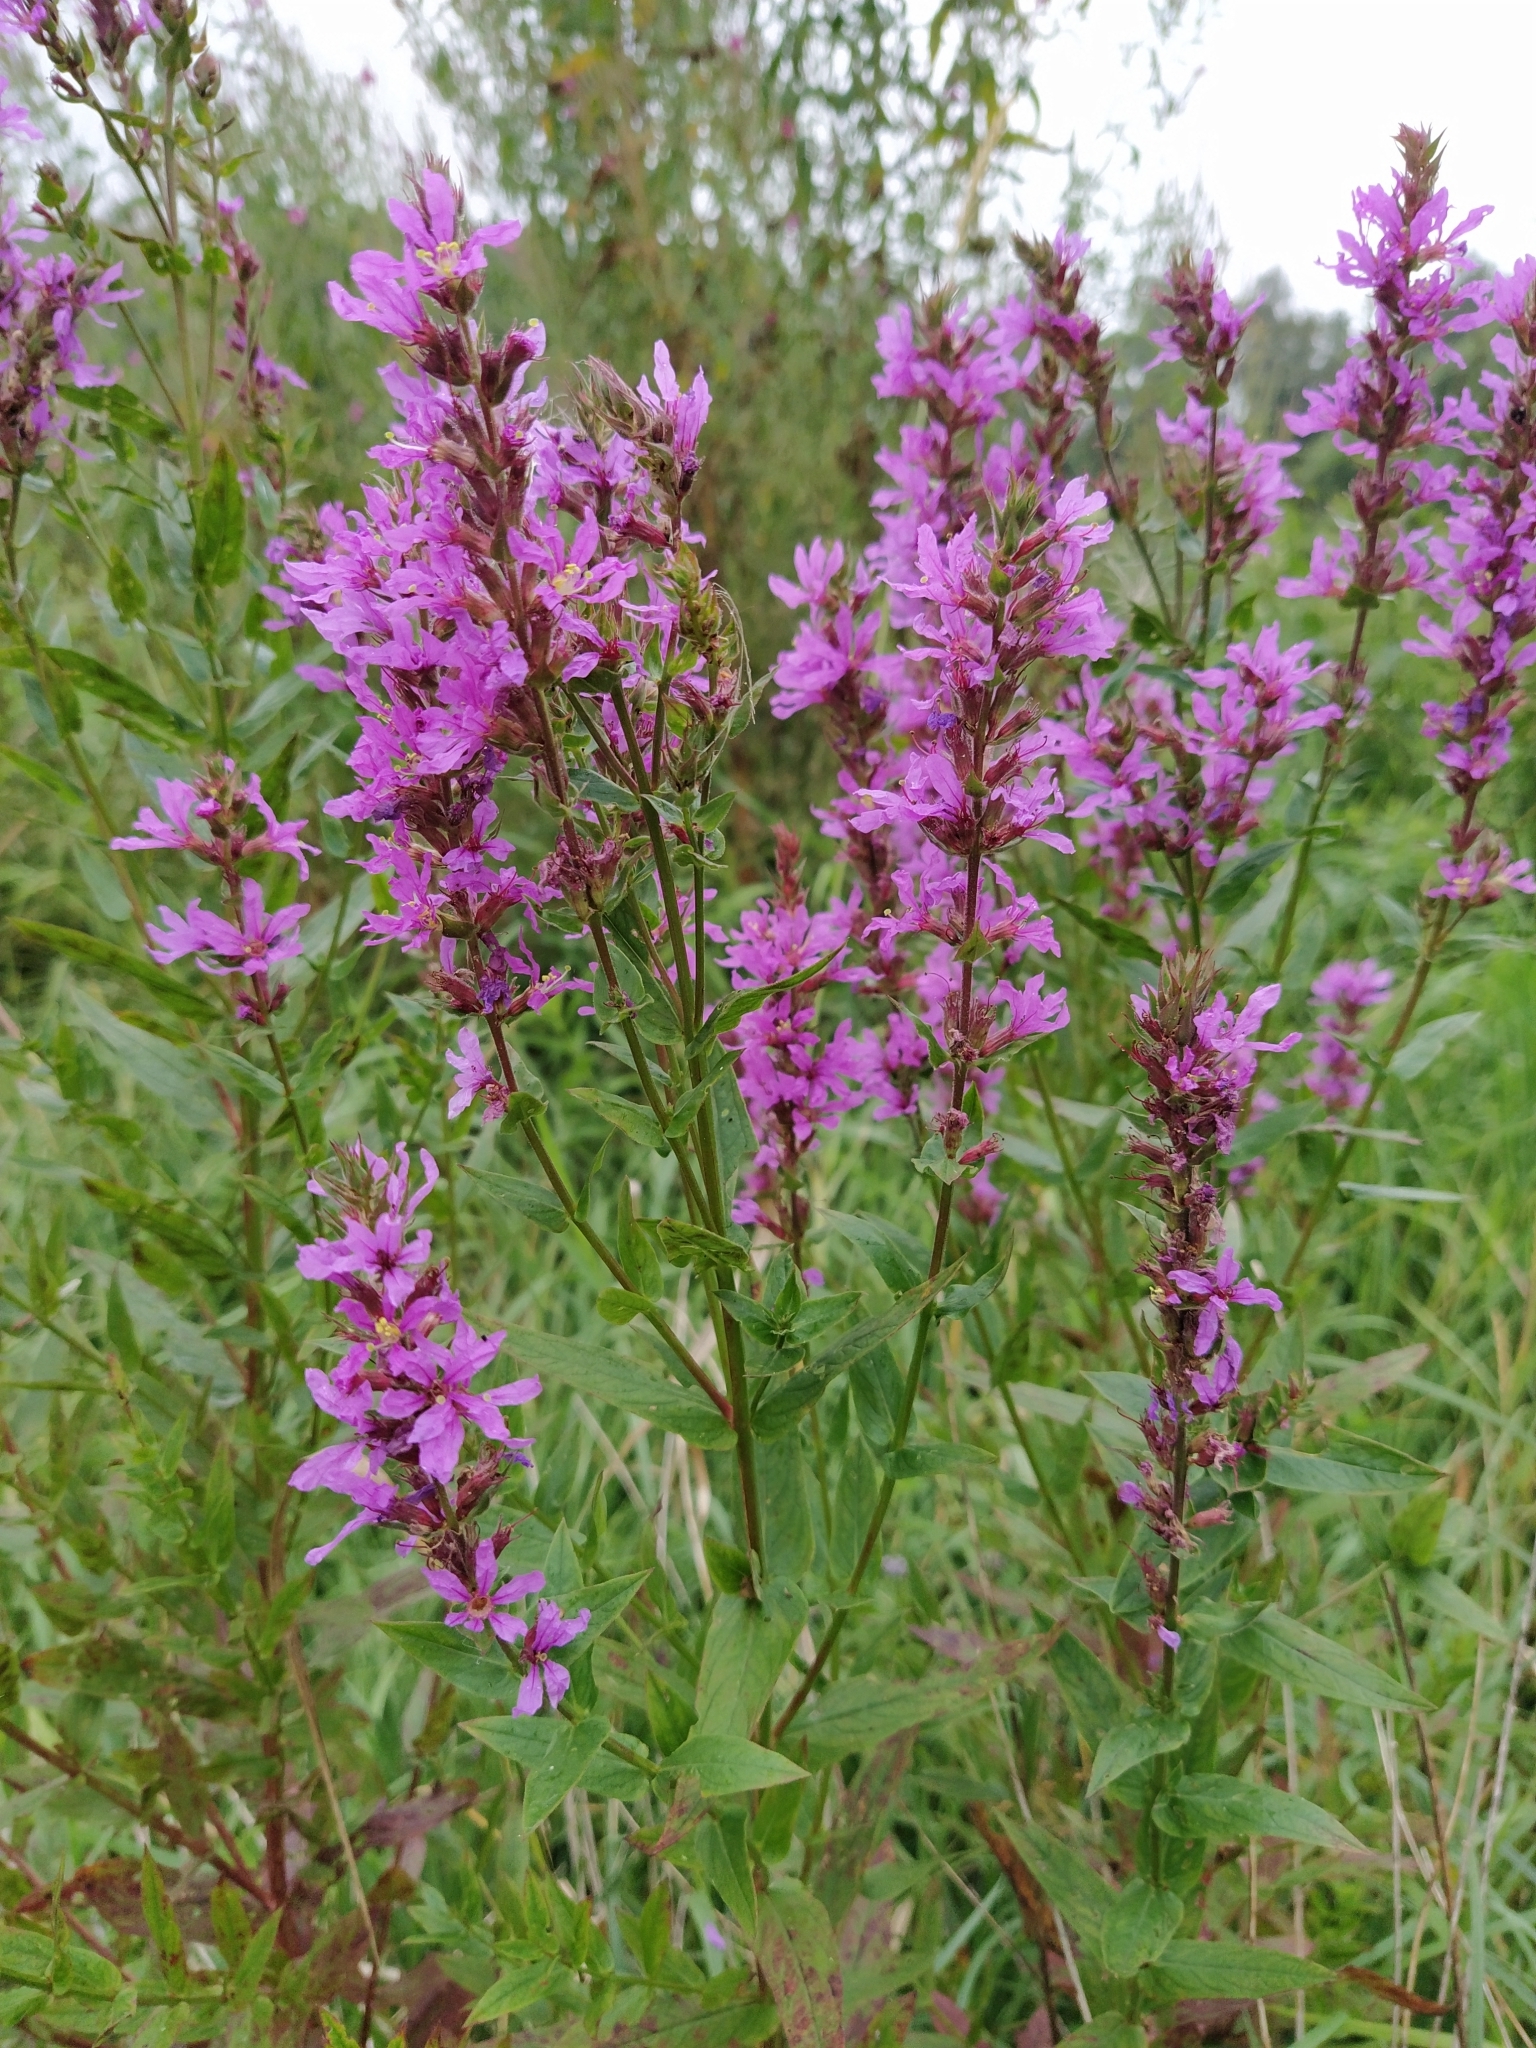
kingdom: Plantae
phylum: Tracheophyta
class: Magnoliopsida
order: Myrtales
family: Lythraceae
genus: Lythrum
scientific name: Lythrum salicaria
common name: Purple loosestrife
